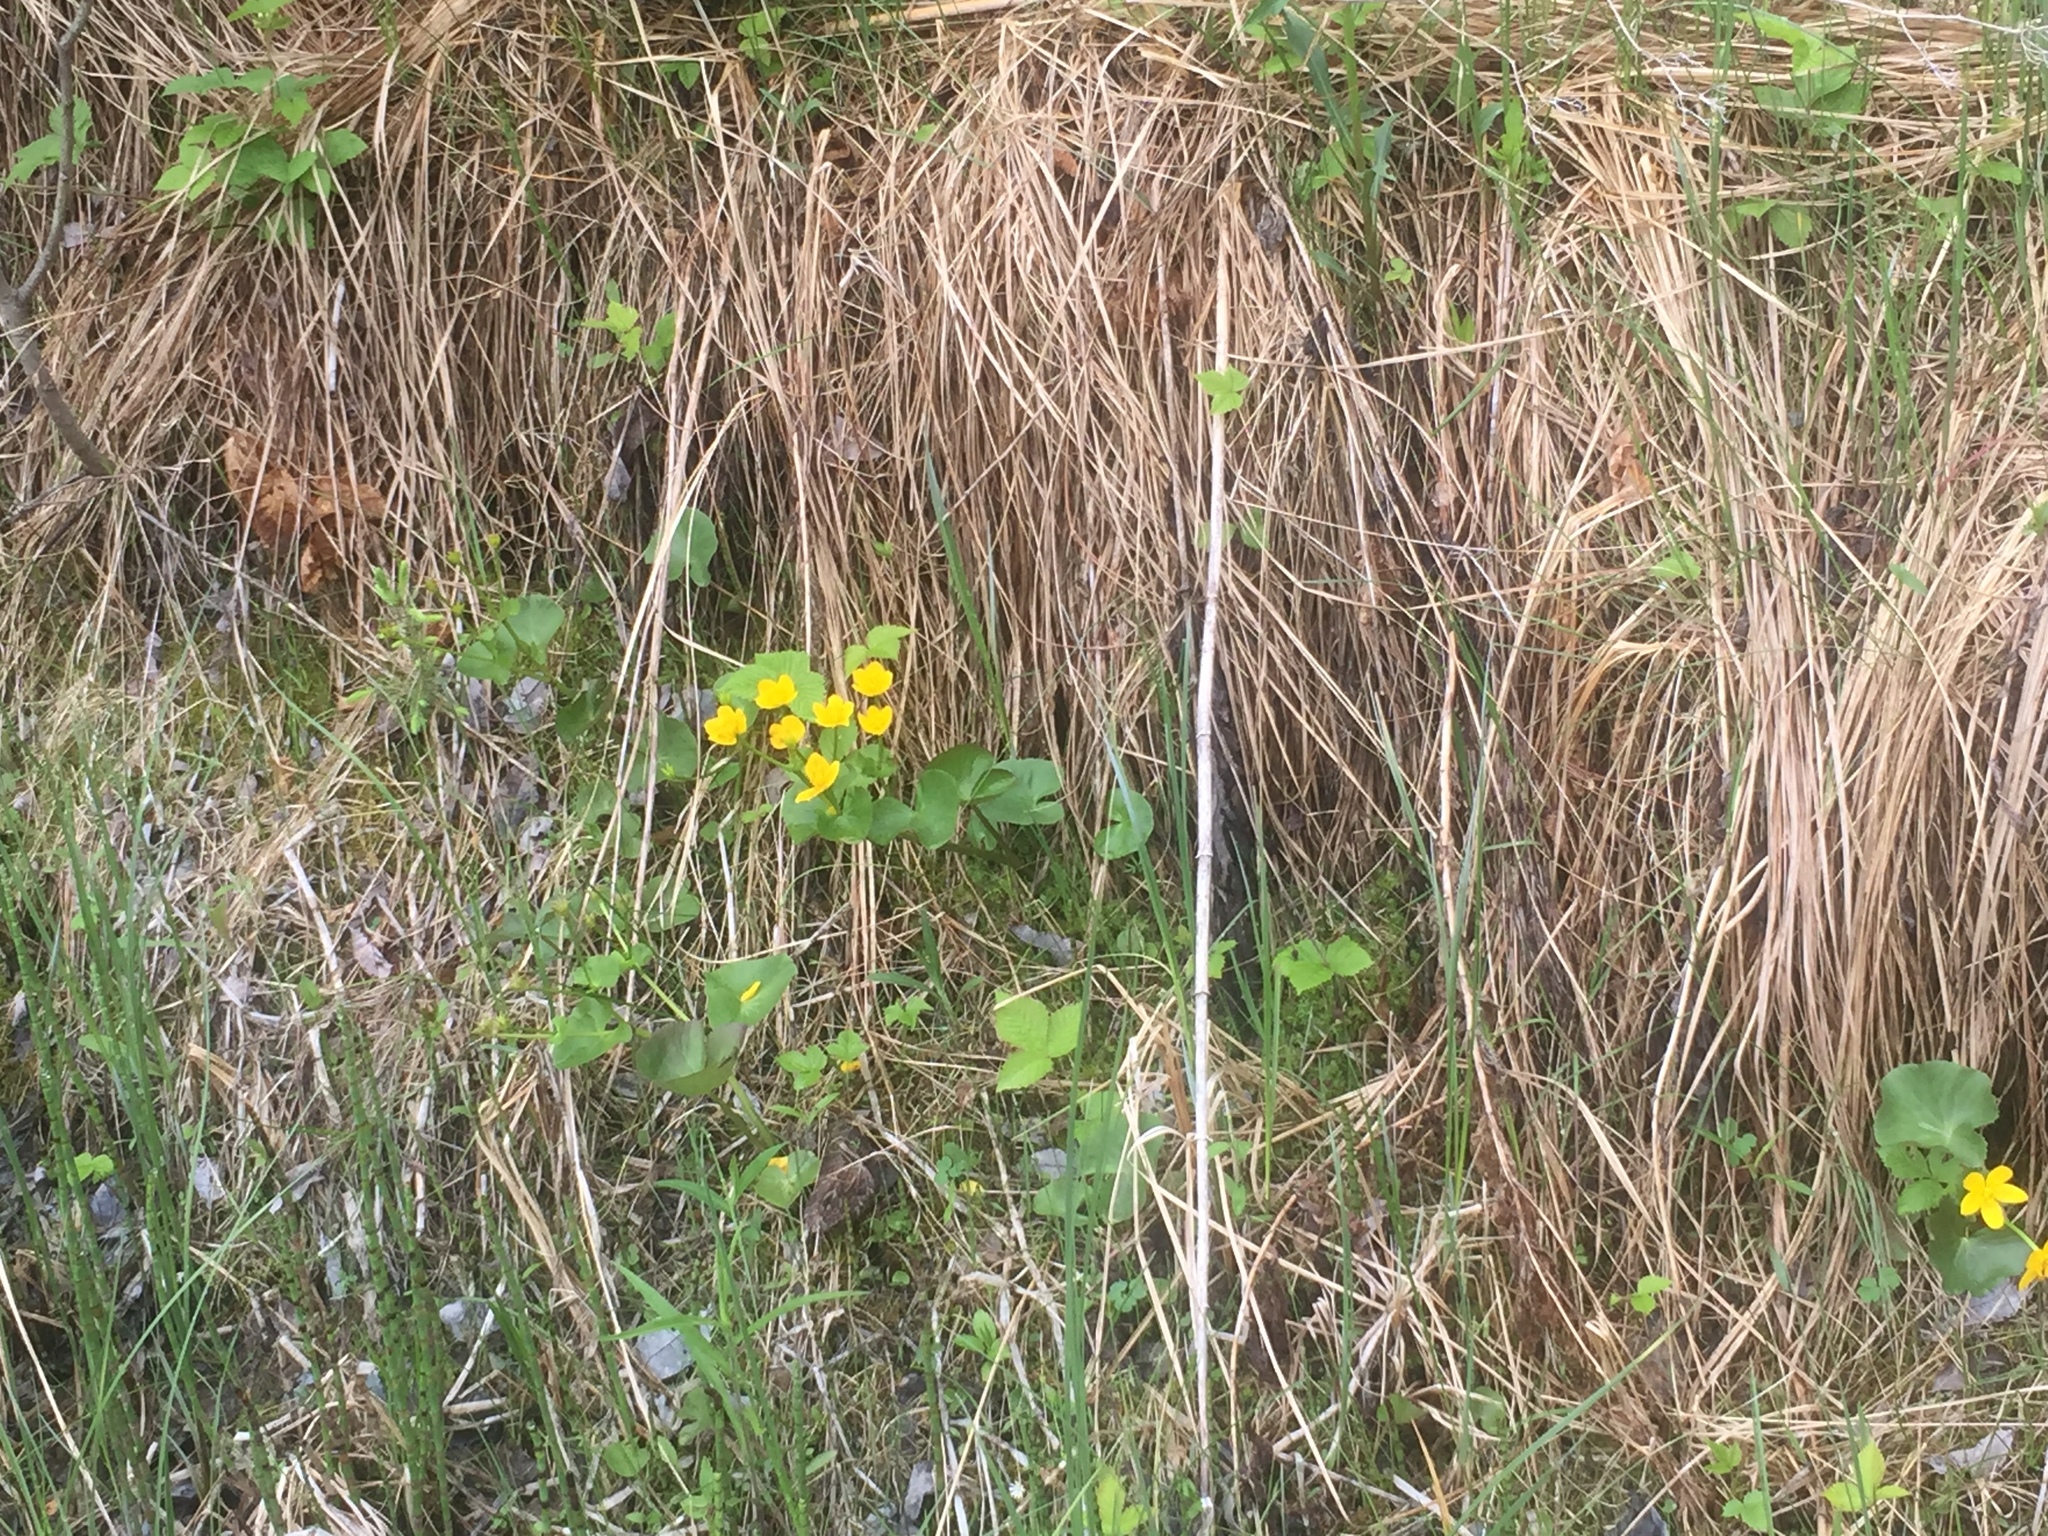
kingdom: Plantae
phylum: Tracheophyta
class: Magnoliopsida
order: Ranunculales
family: Ranunculaceae
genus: Caltha
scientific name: Caltha palustris
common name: Marsh marigold
